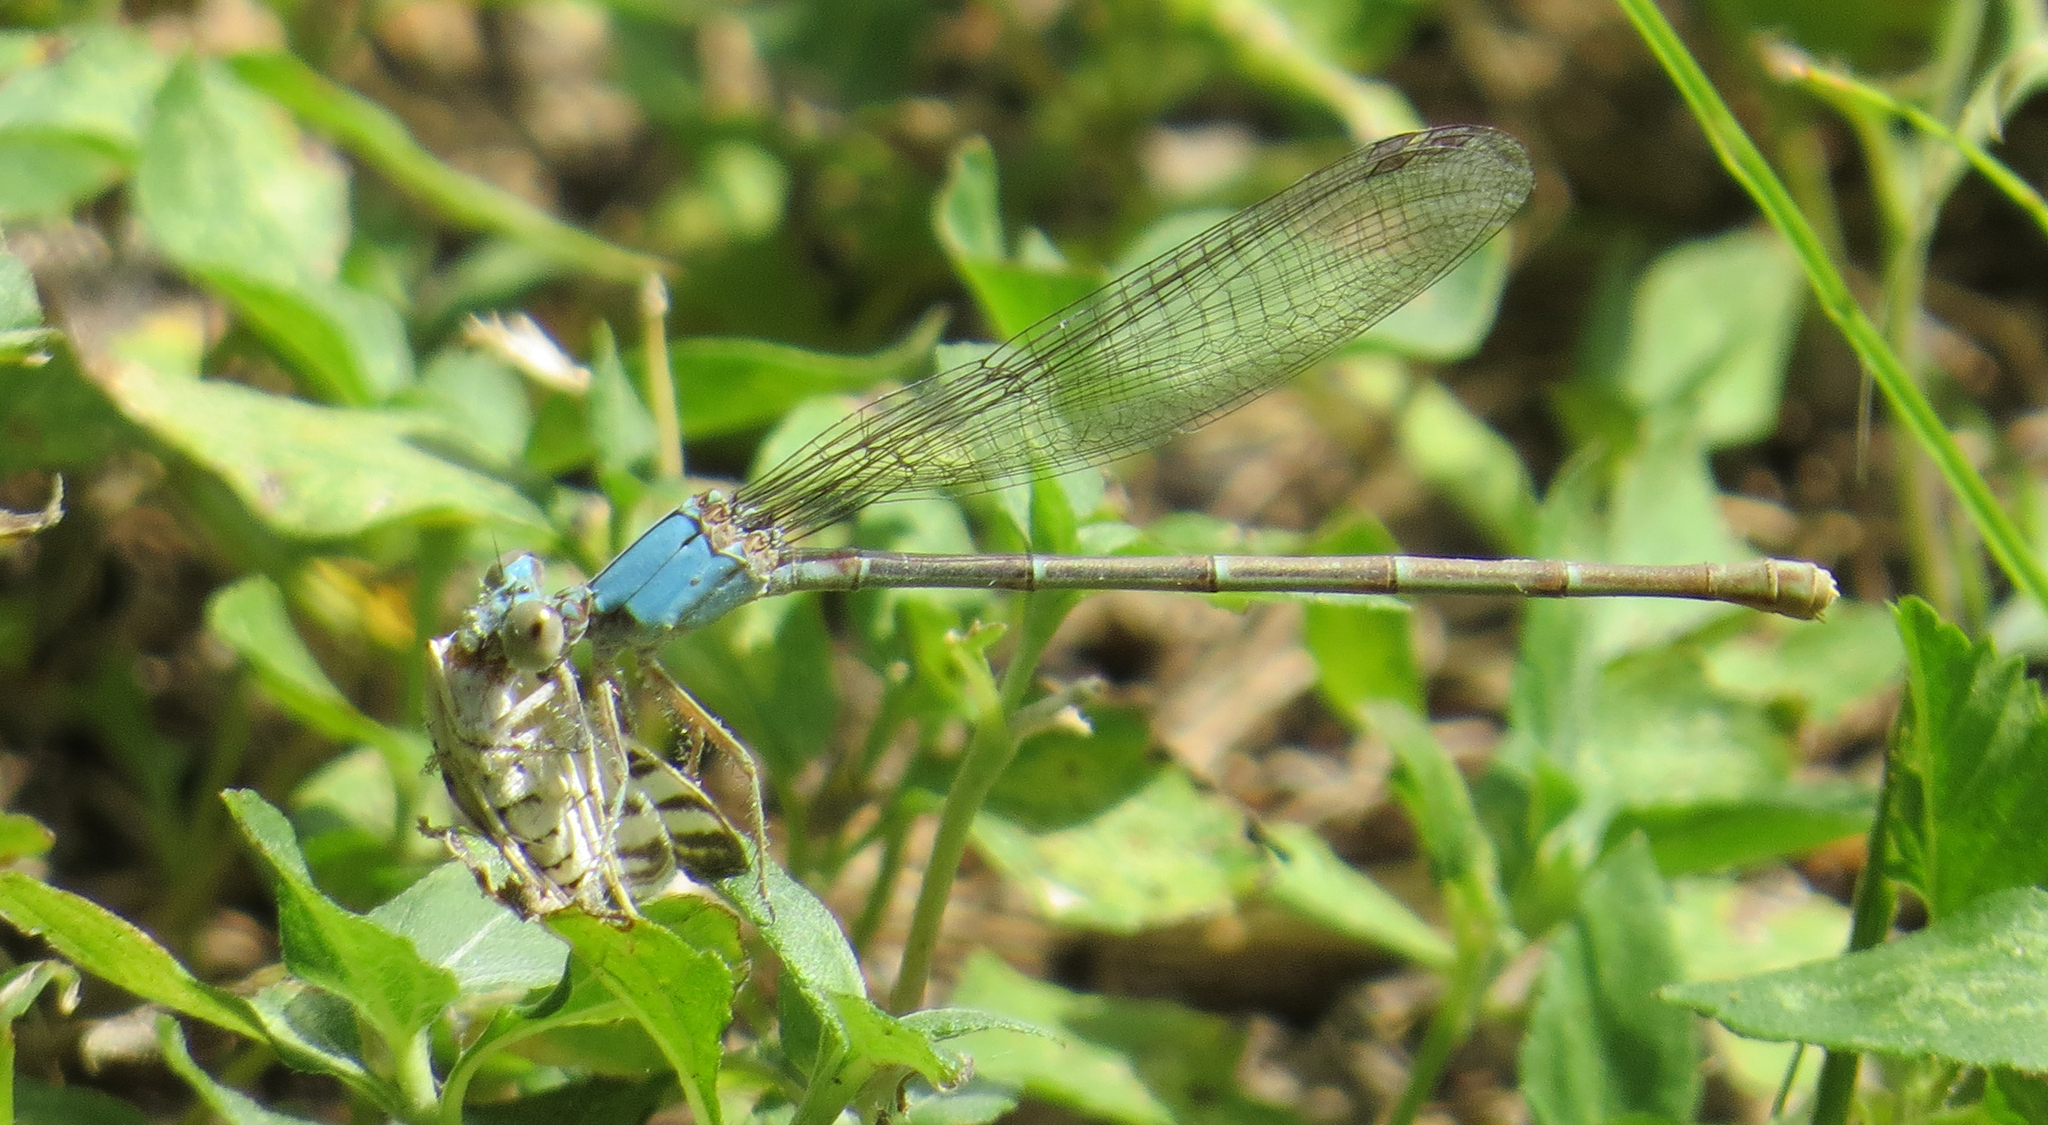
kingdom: Animalia
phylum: Arthropoda
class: Insecta
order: Odonata
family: Coenagrionidae
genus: Argia
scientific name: Argia moesta
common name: Powdered dancer
